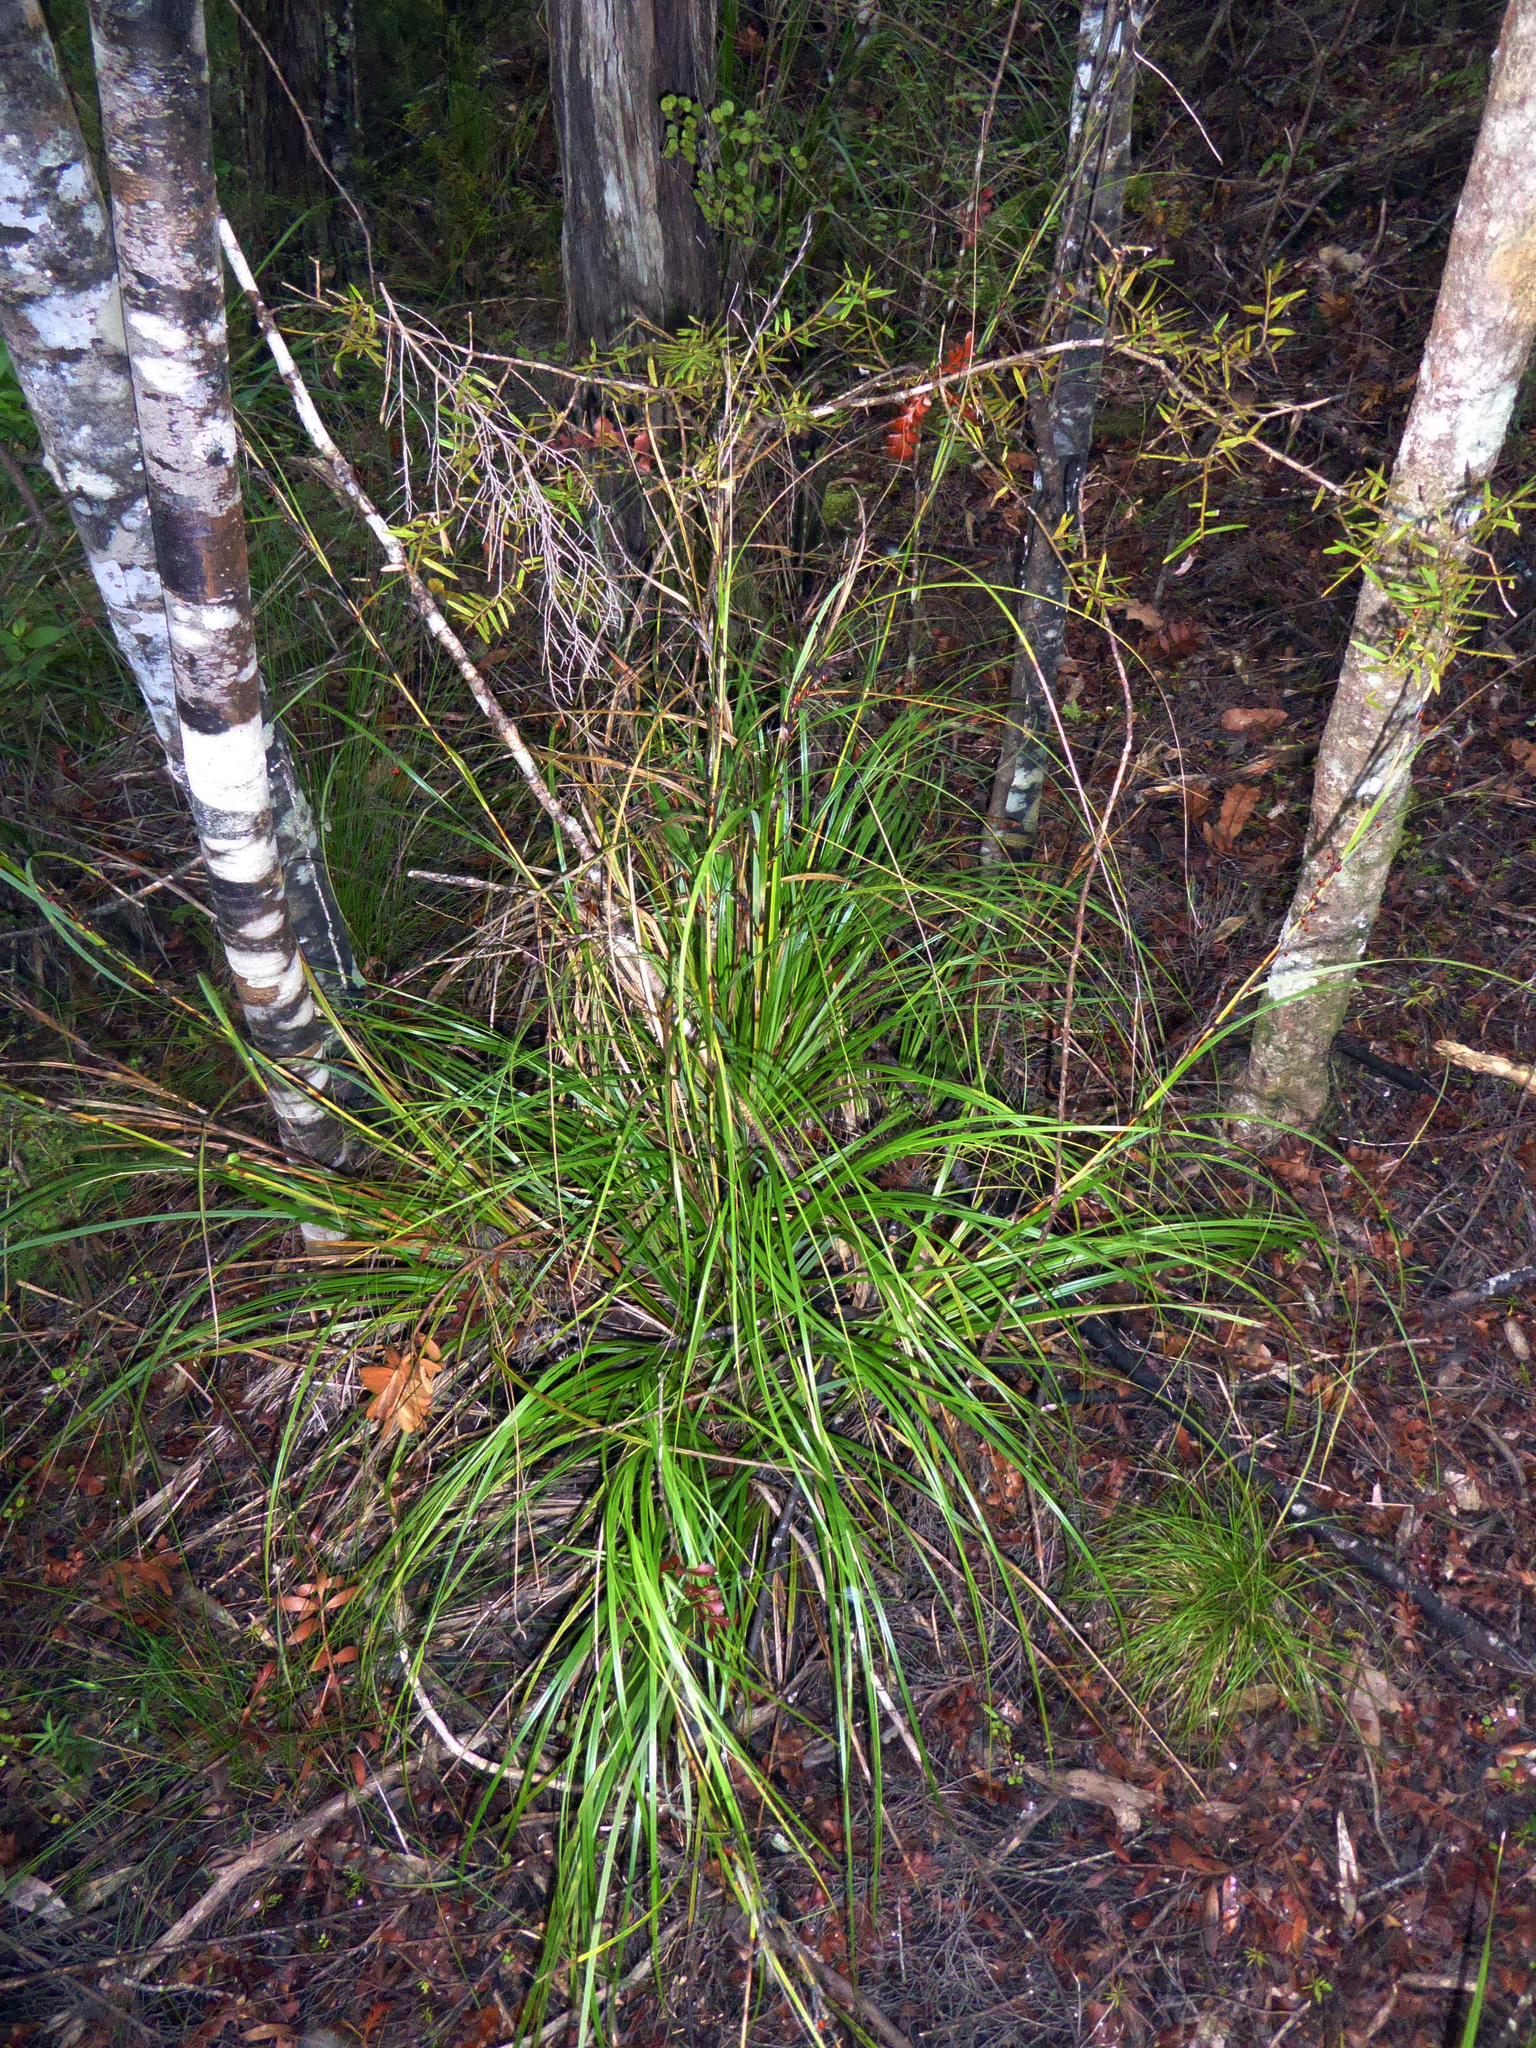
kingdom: Plantae
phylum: Tracheophyta
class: Liliopsida
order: Poales
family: Cyperaceae
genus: Gahnia
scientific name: Gahnia pauciflora
